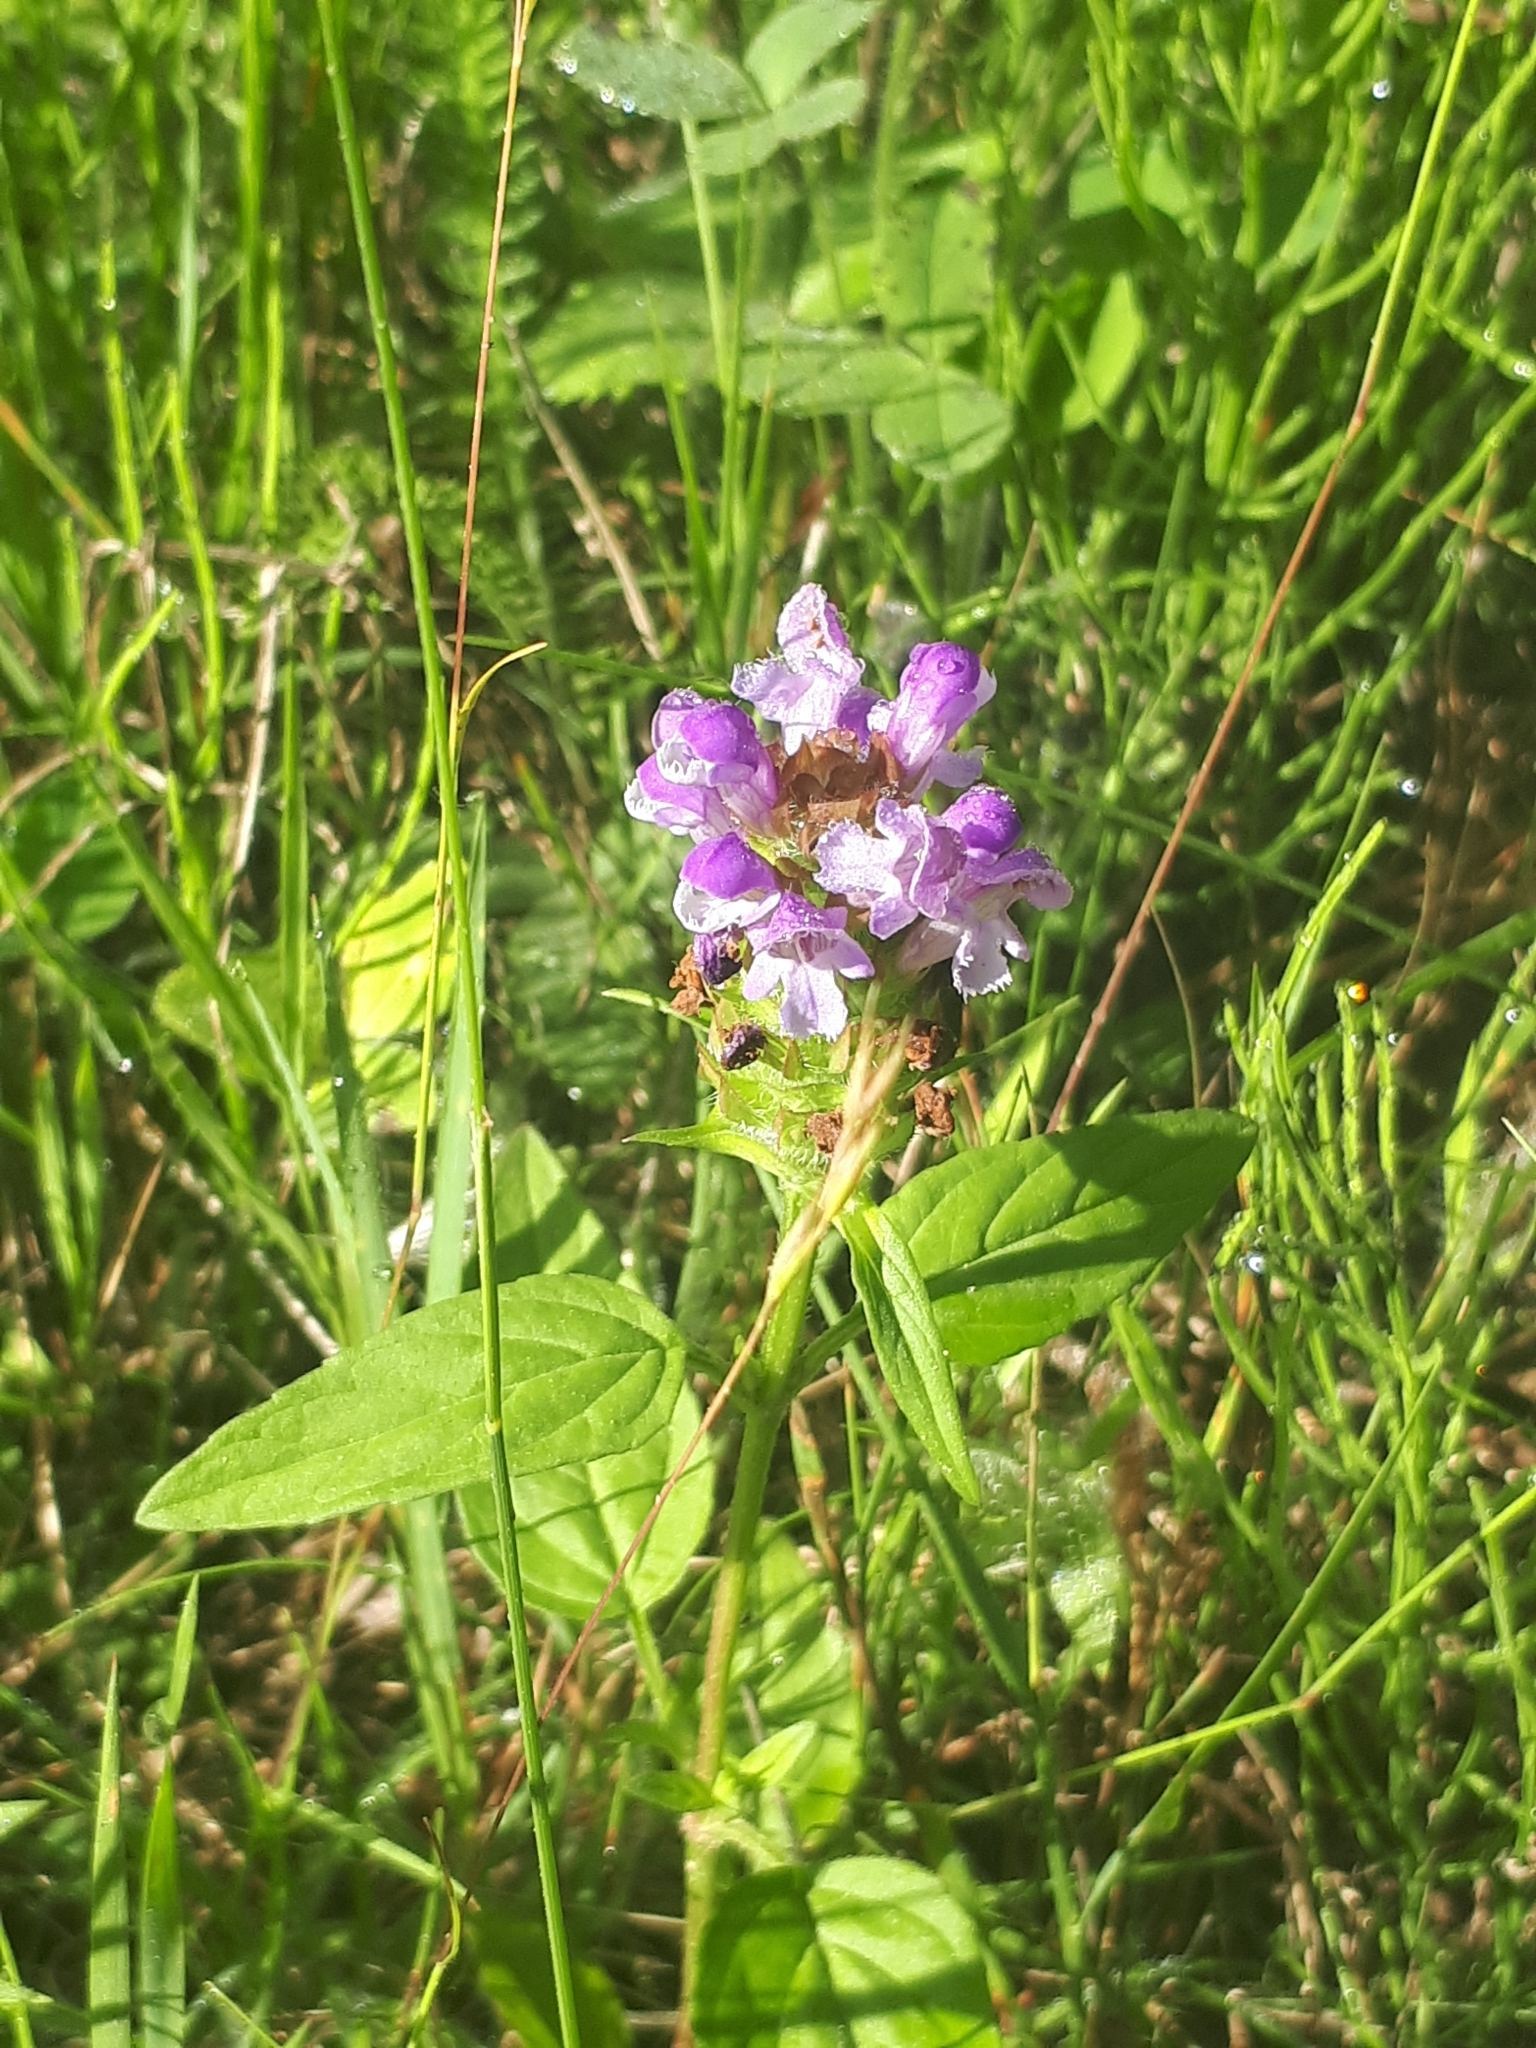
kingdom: Plantae
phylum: Tracheophyta
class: Magnoliopsida
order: Lamiales
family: Lamiaceae
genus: Prunella
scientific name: Prunella vulgaris
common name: Heal-all
